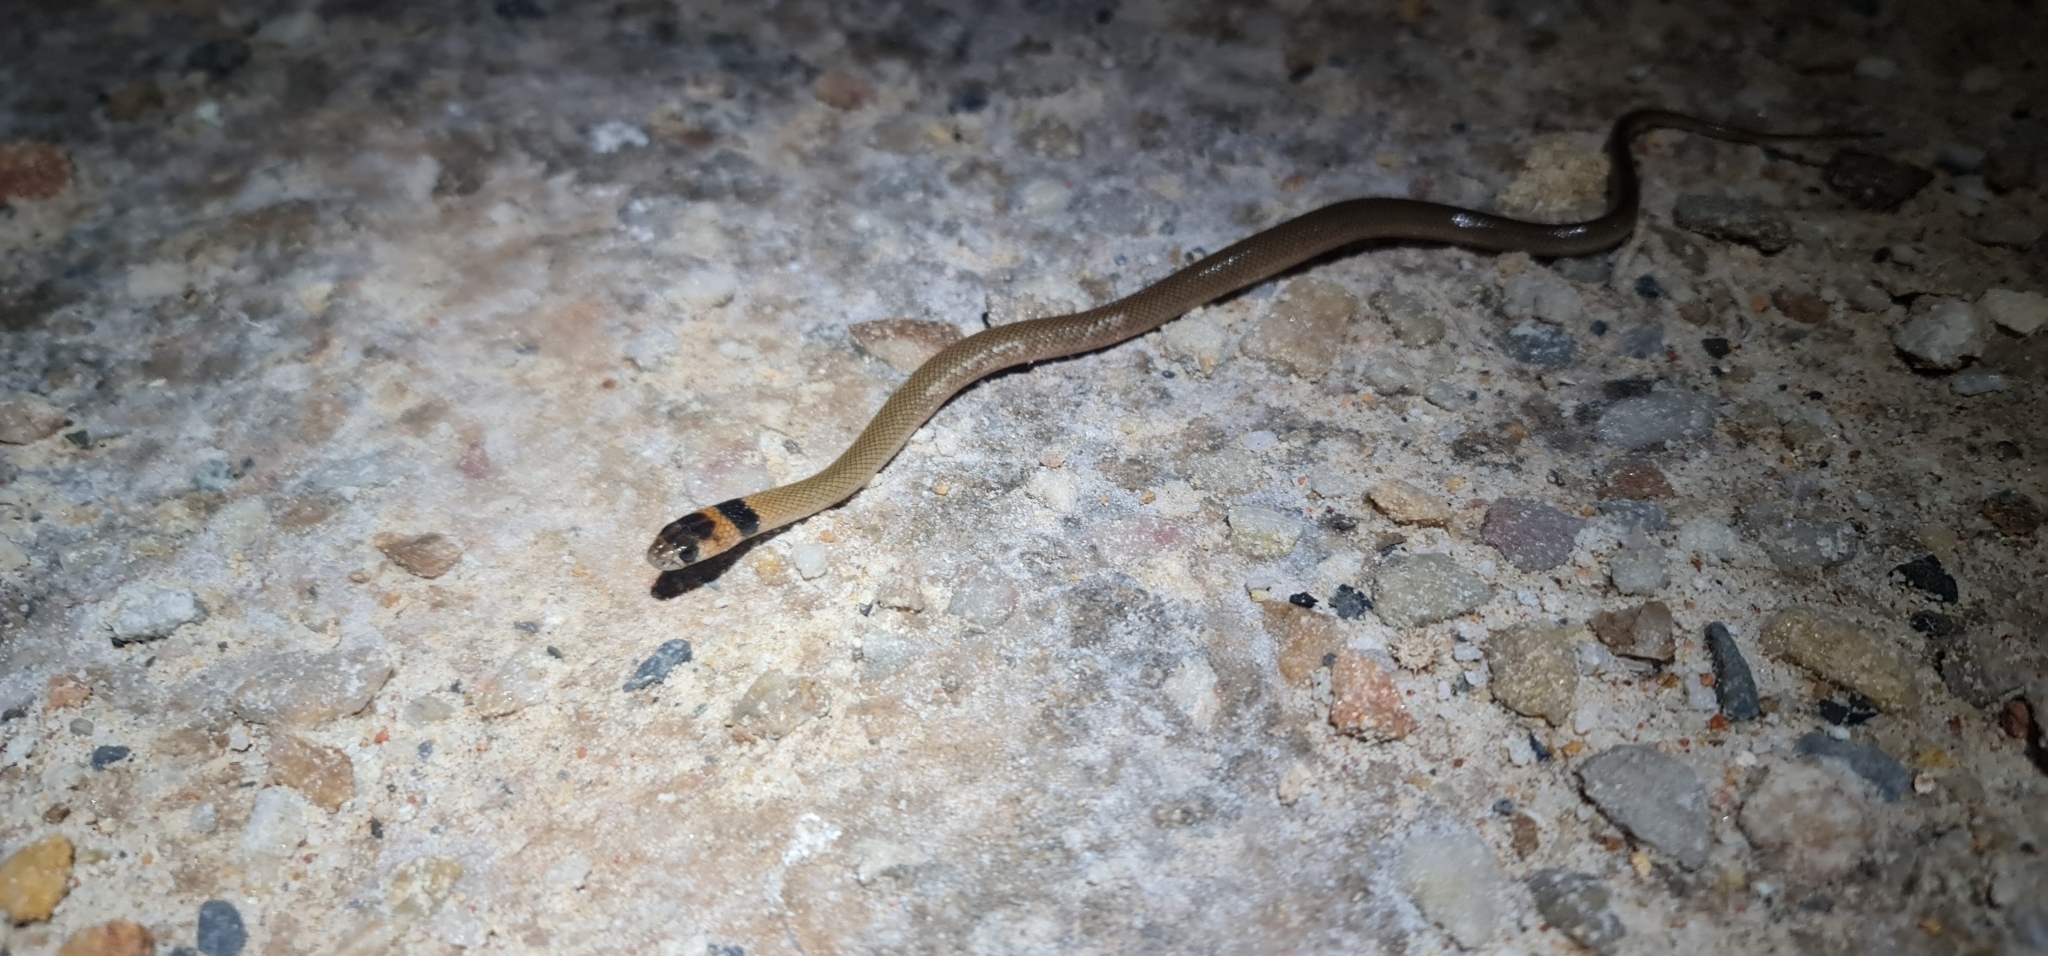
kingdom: Animalia
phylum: Chordata
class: Squamata
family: Elapidae
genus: Pseudonaja
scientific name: Pseudonaja textilis
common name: Eastern brown snake
